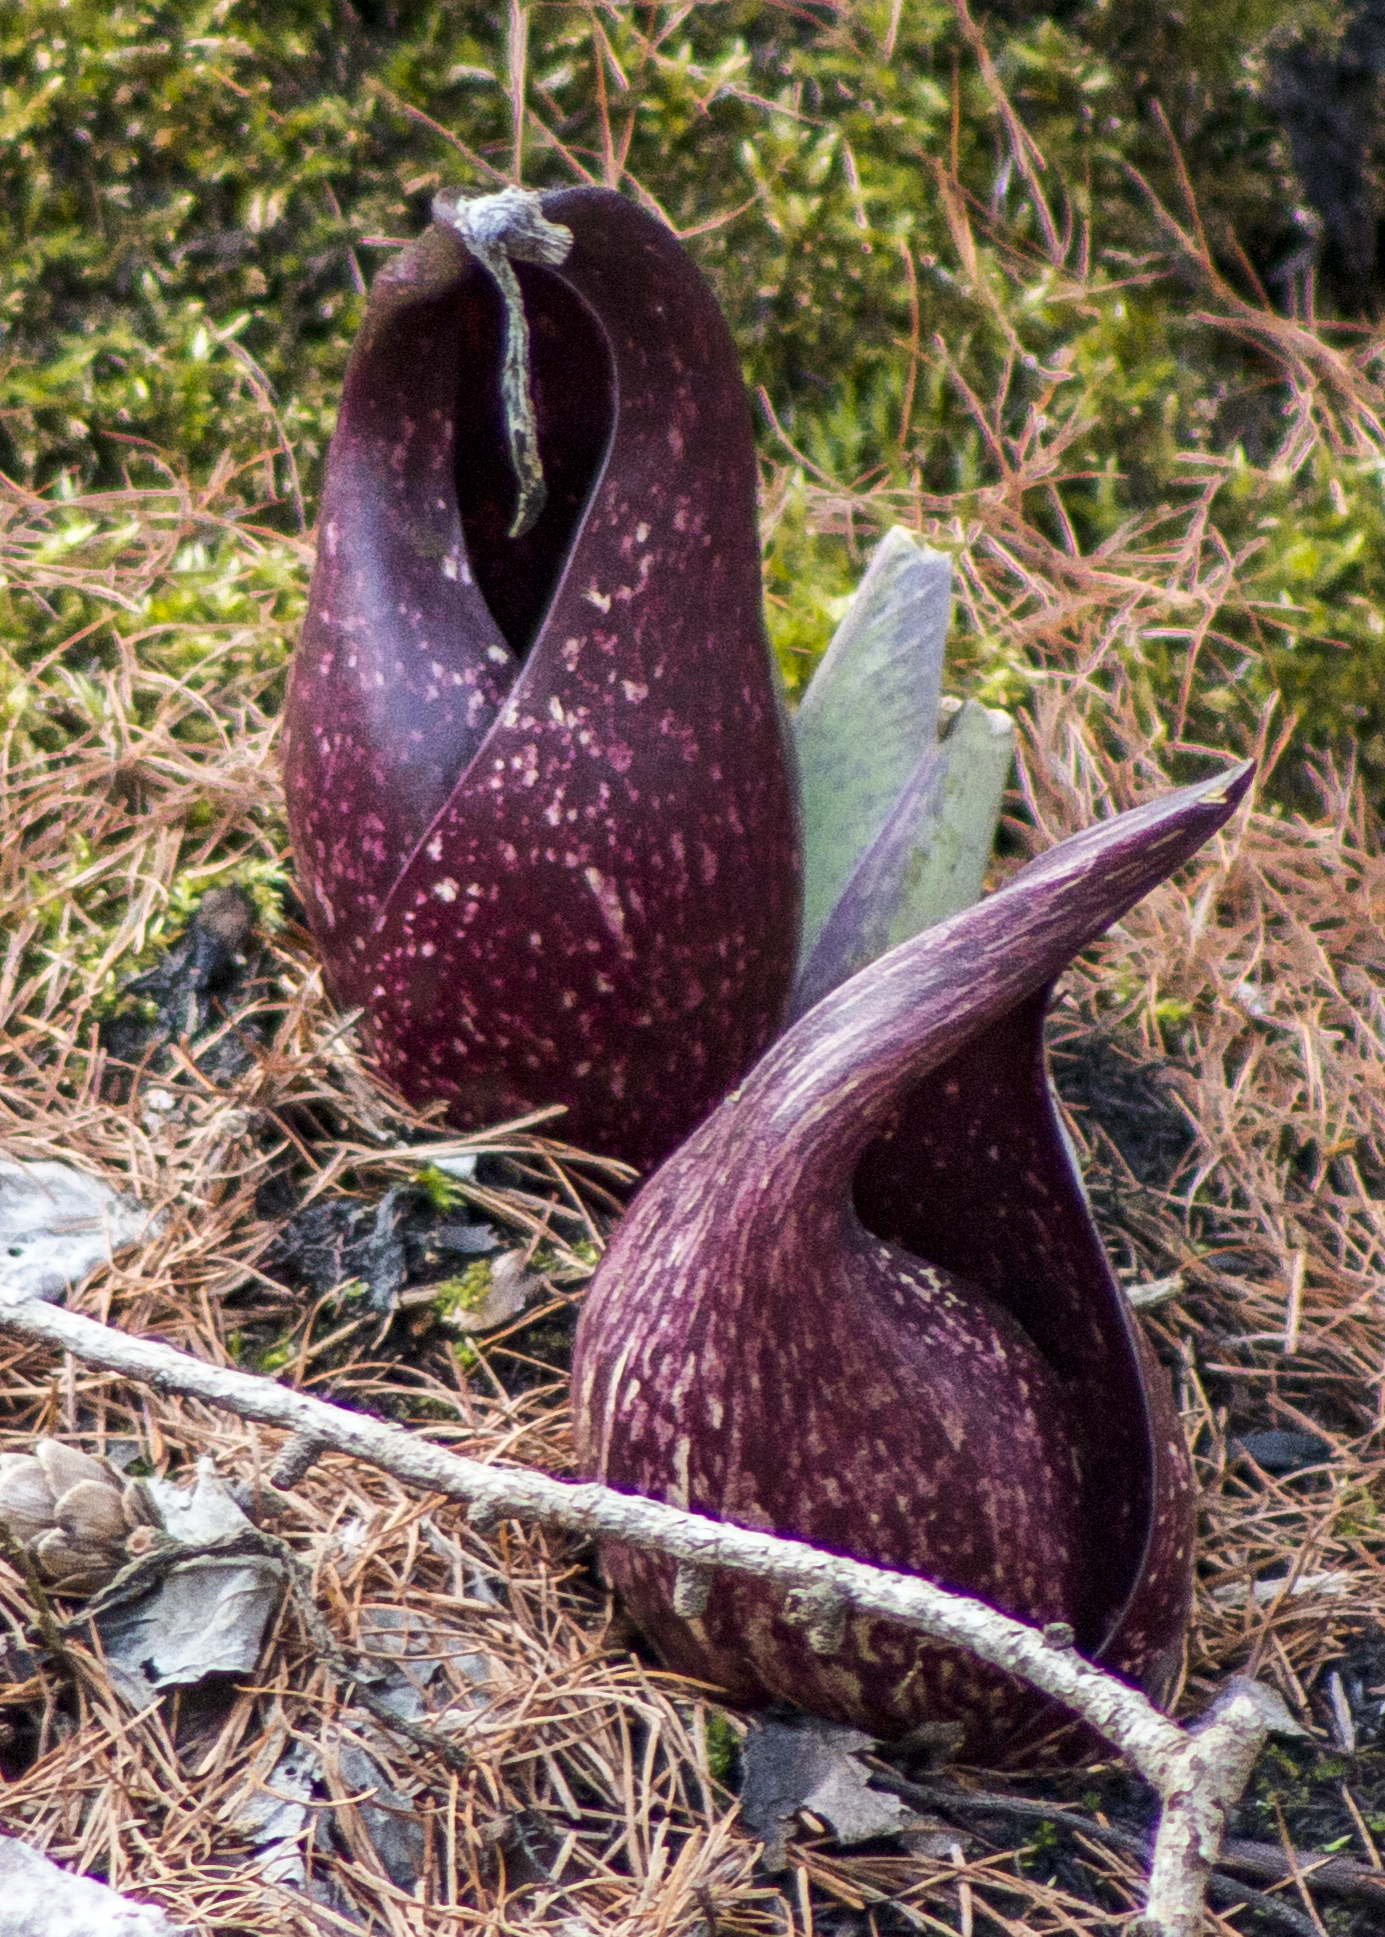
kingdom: Plantae
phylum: Tracheophyta
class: Liliopsida
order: Alismatales
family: Araceae
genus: Symplocarpus
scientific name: Symplocarpus foetidus
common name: Eastern skunk cabbage
